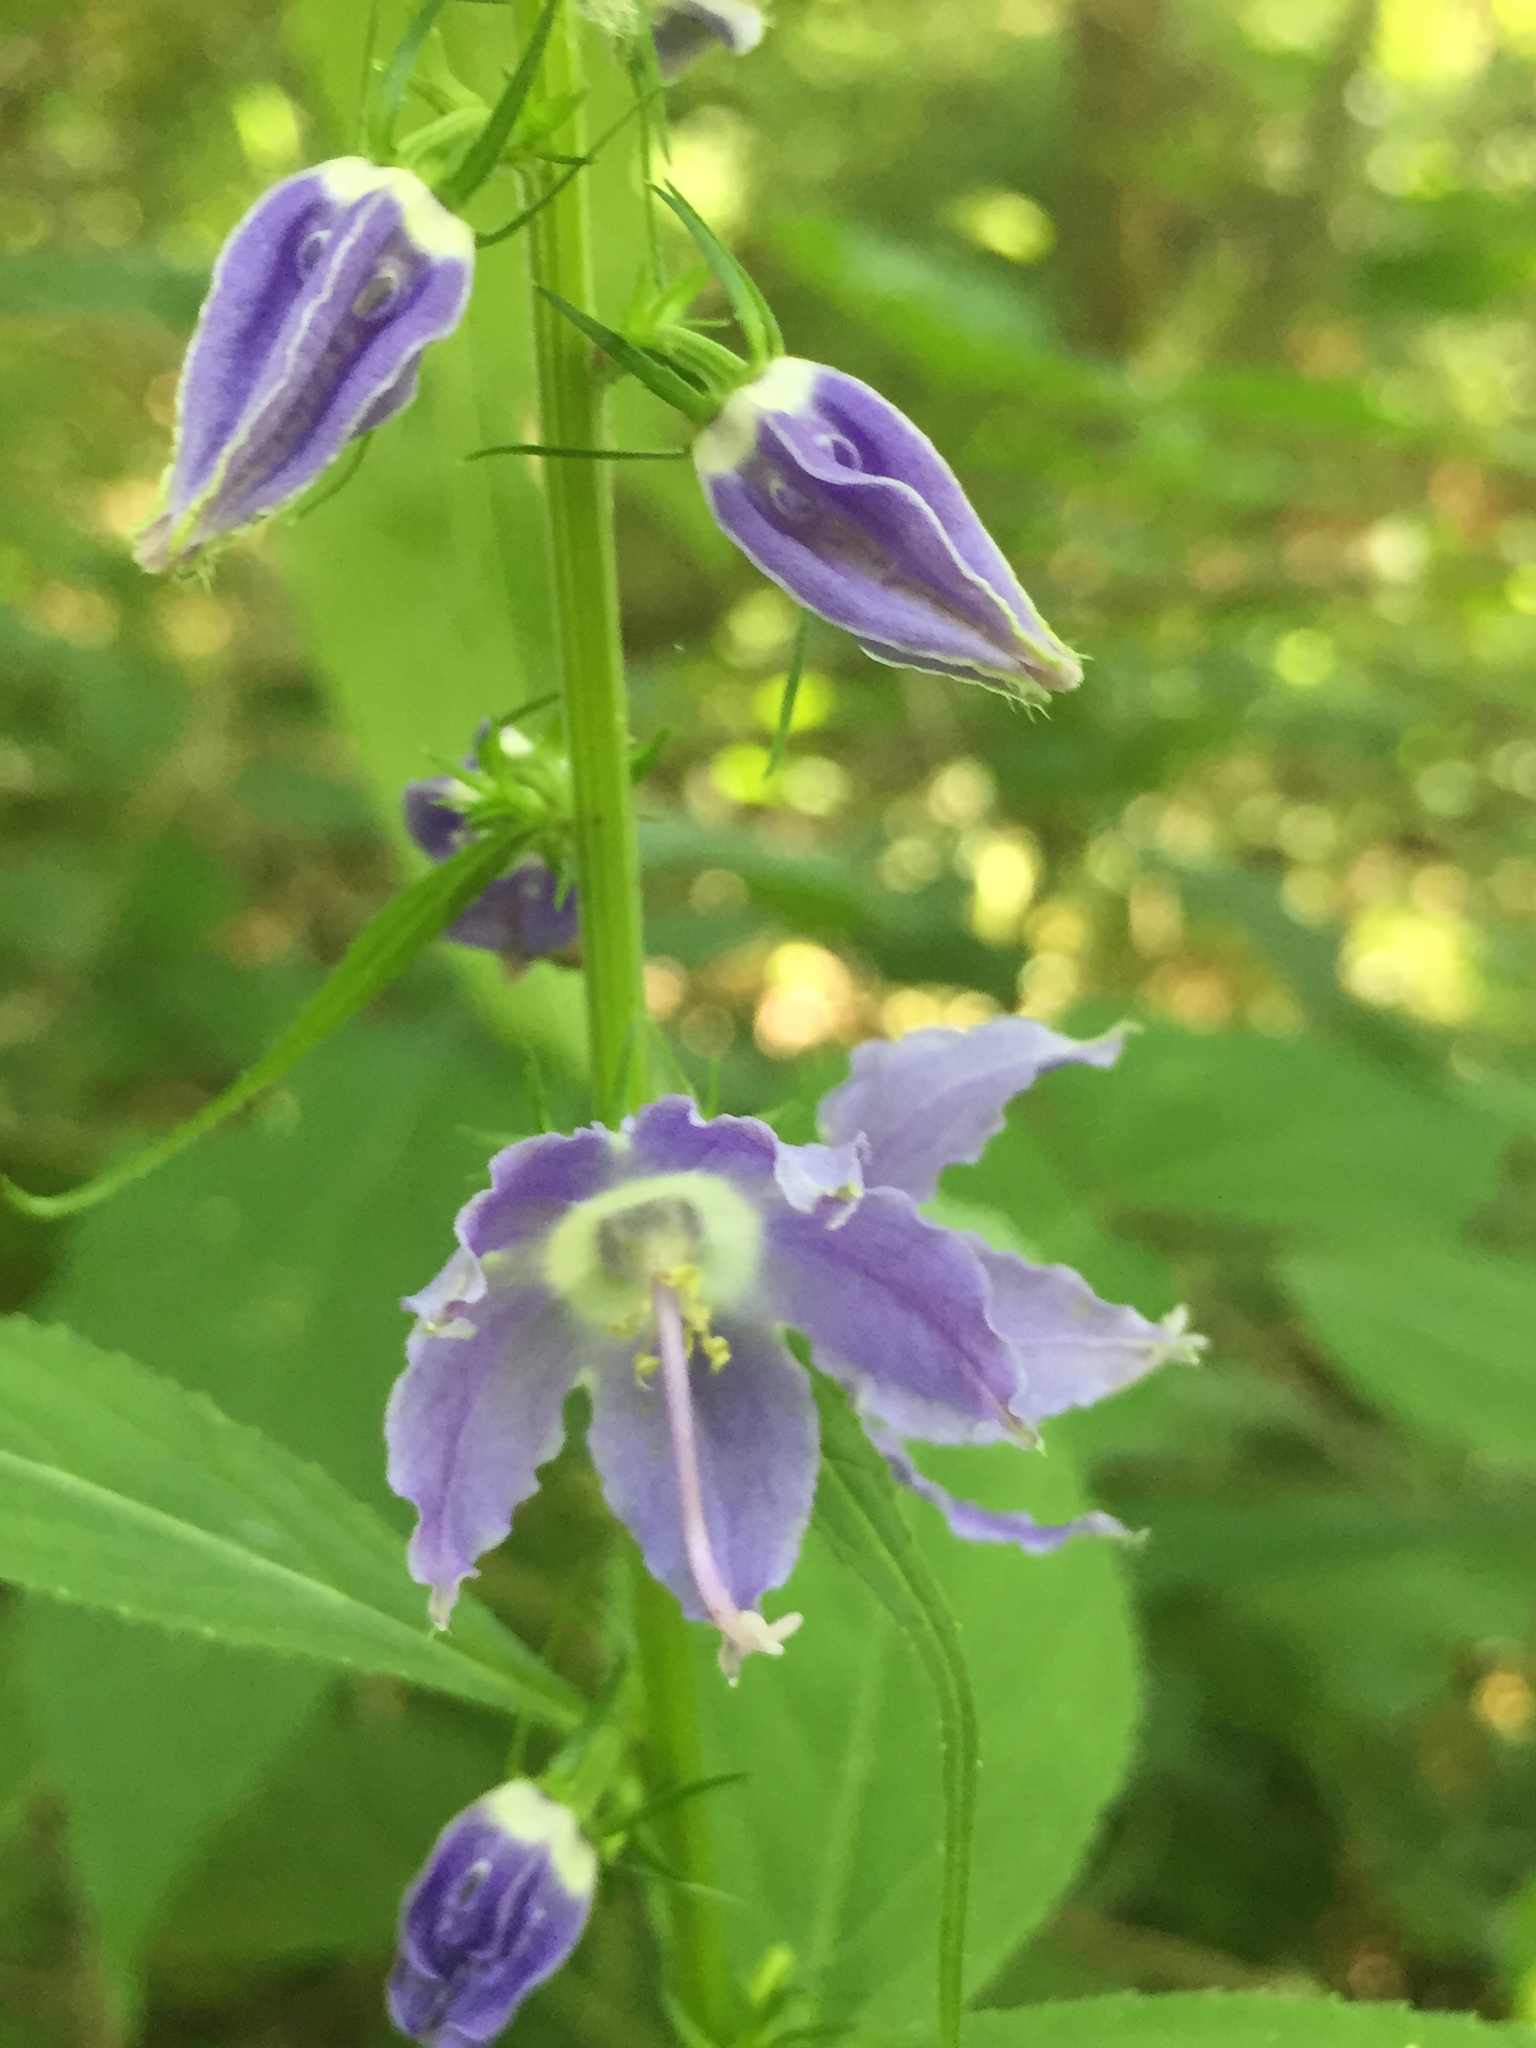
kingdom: Plantae
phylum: Tracheophyta
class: Magnoliopsida
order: Asterales
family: Campanulaceae
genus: Campanulastrum
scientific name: Campanulastrum americanum
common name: American bellflower
